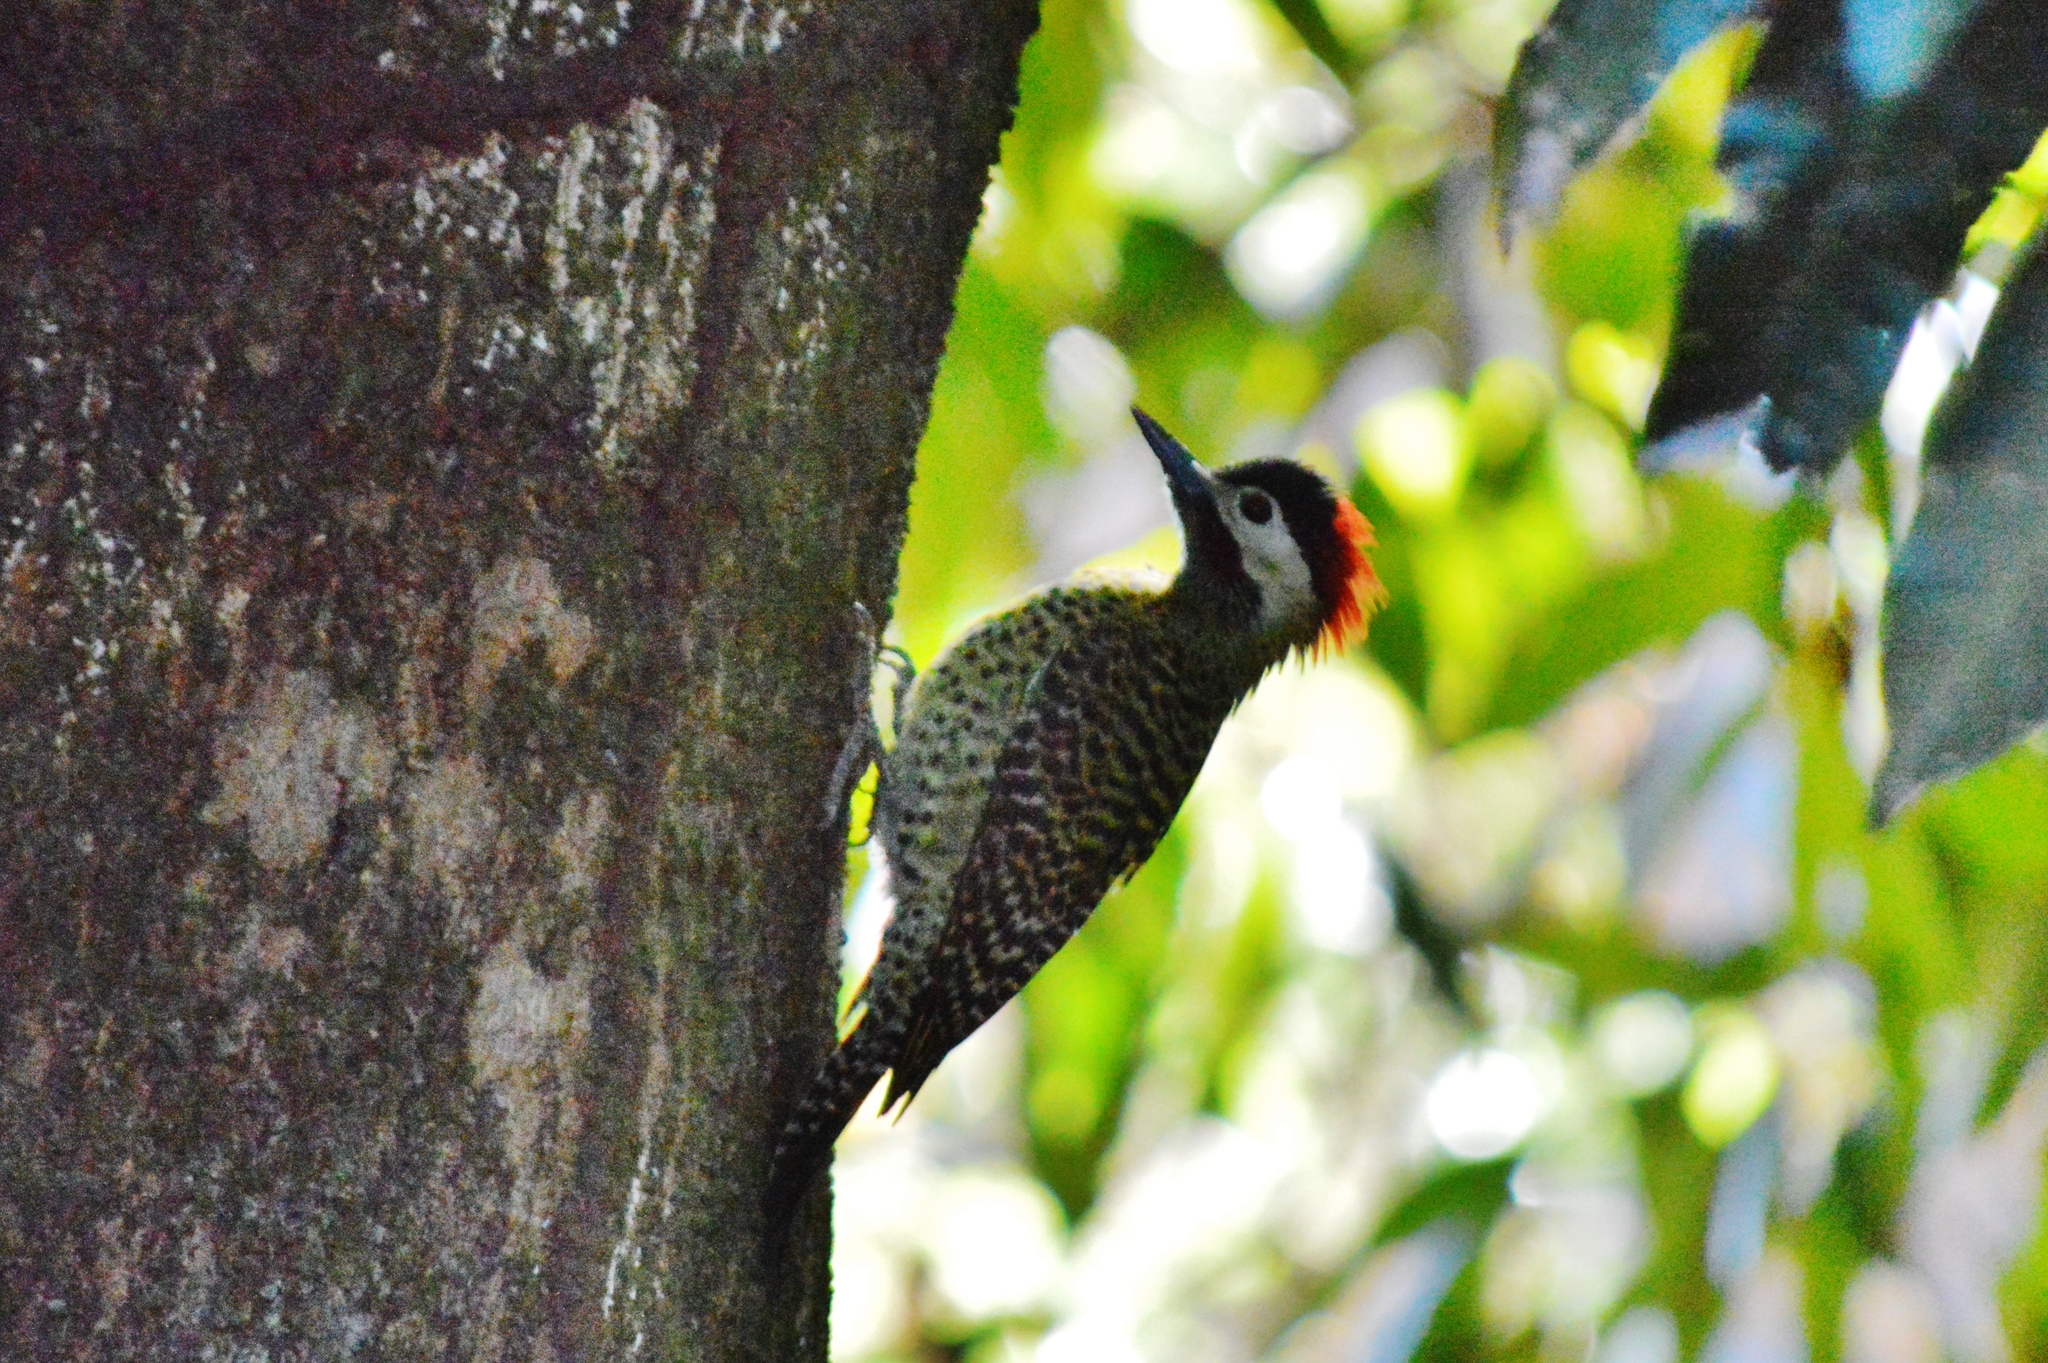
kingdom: Animalia
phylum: Chordata
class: Aves
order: Piciformes
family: Picidae
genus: Colaptes
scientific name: Colaptes melanochloros
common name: Green-barred woodpecker
